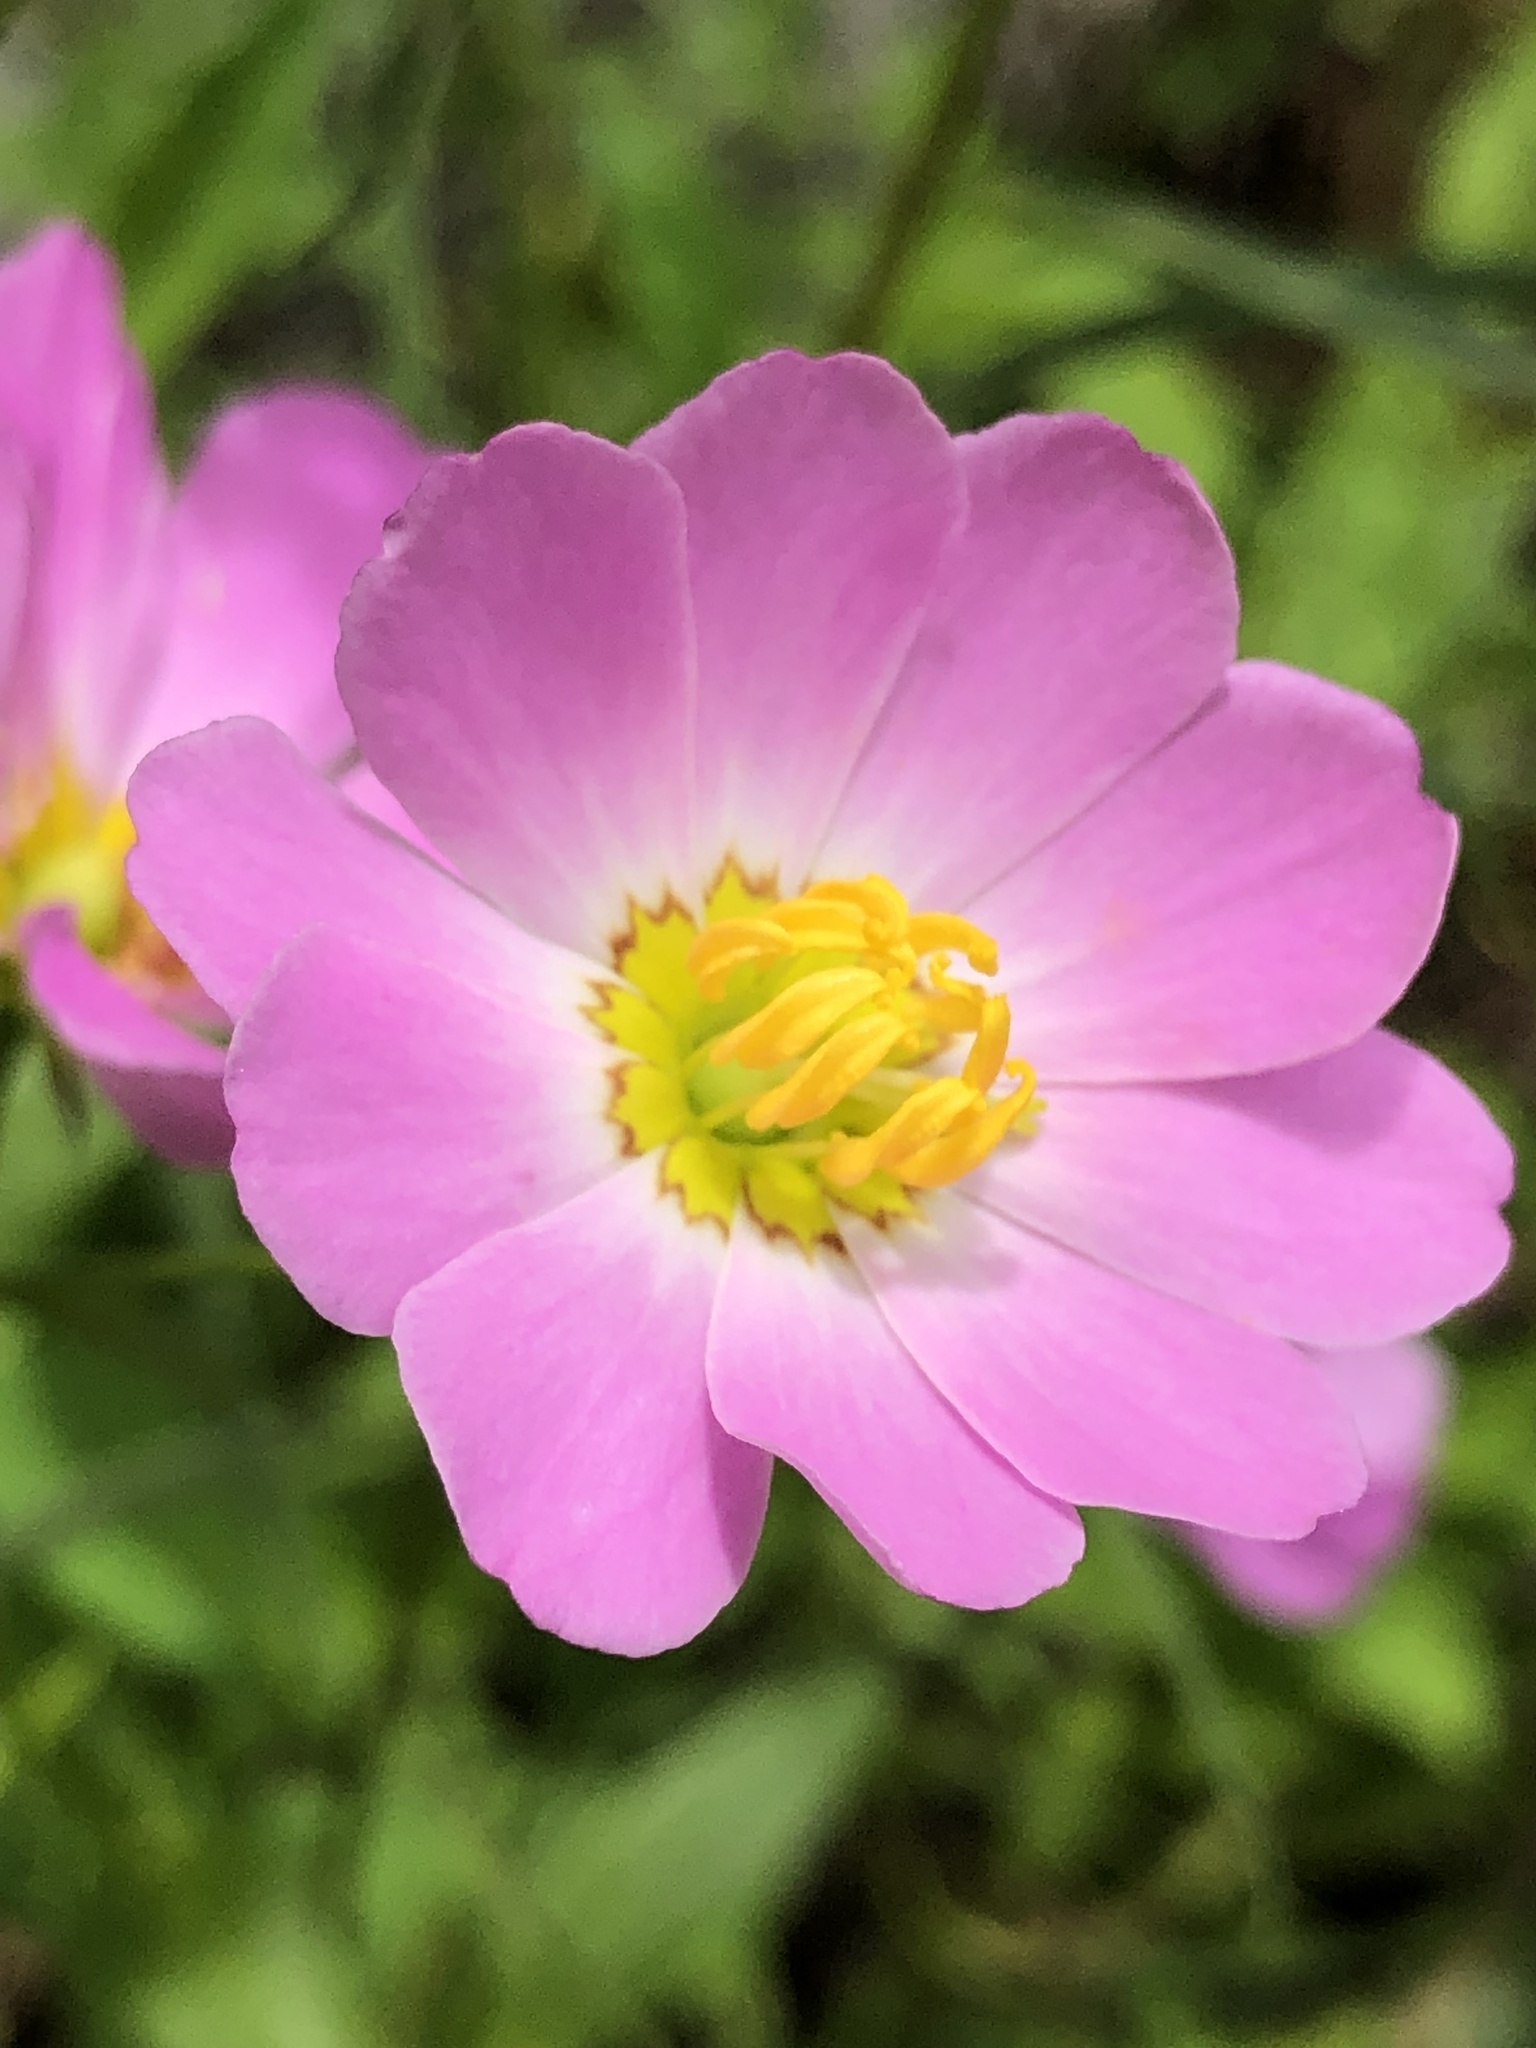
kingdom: Plantae
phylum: Tracheophyta
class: Magnoliopsida
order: Gentianales
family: Gentianaceae
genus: Sabatia
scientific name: Sabatia kennedyana
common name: Plymouth gentian
